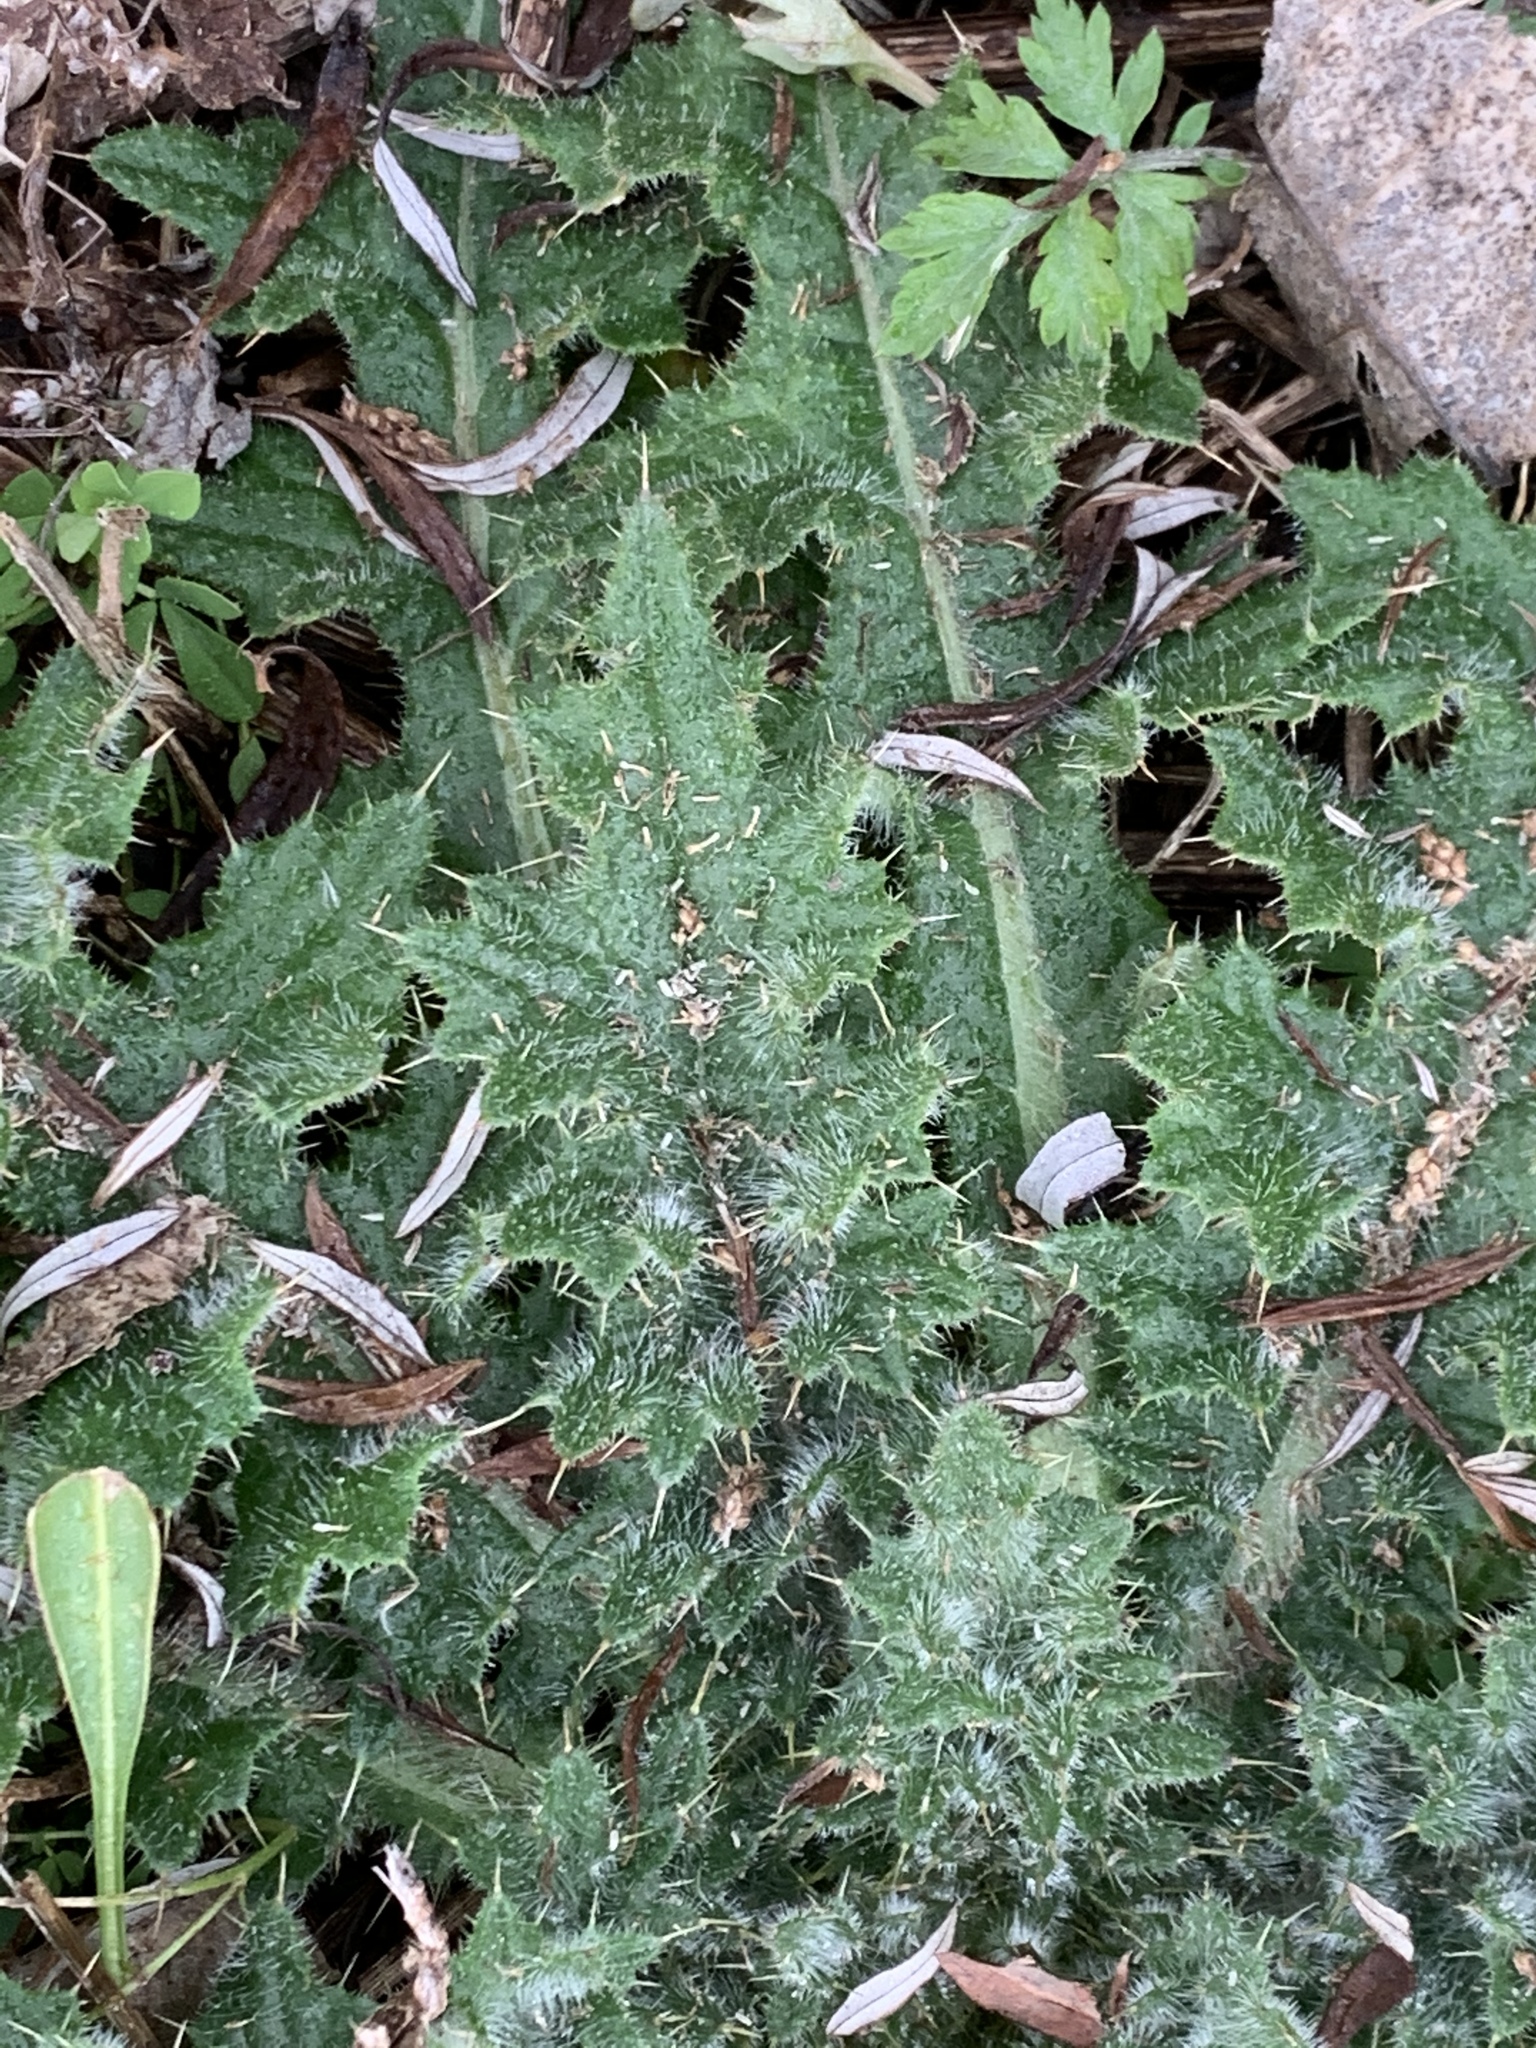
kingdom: Plantae
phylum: Tracheophyta
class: Magnoliopsida
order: Asterales
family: Asteraceae
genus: Cirsium
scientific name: Cirsium vulgare
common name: Bull thistle
